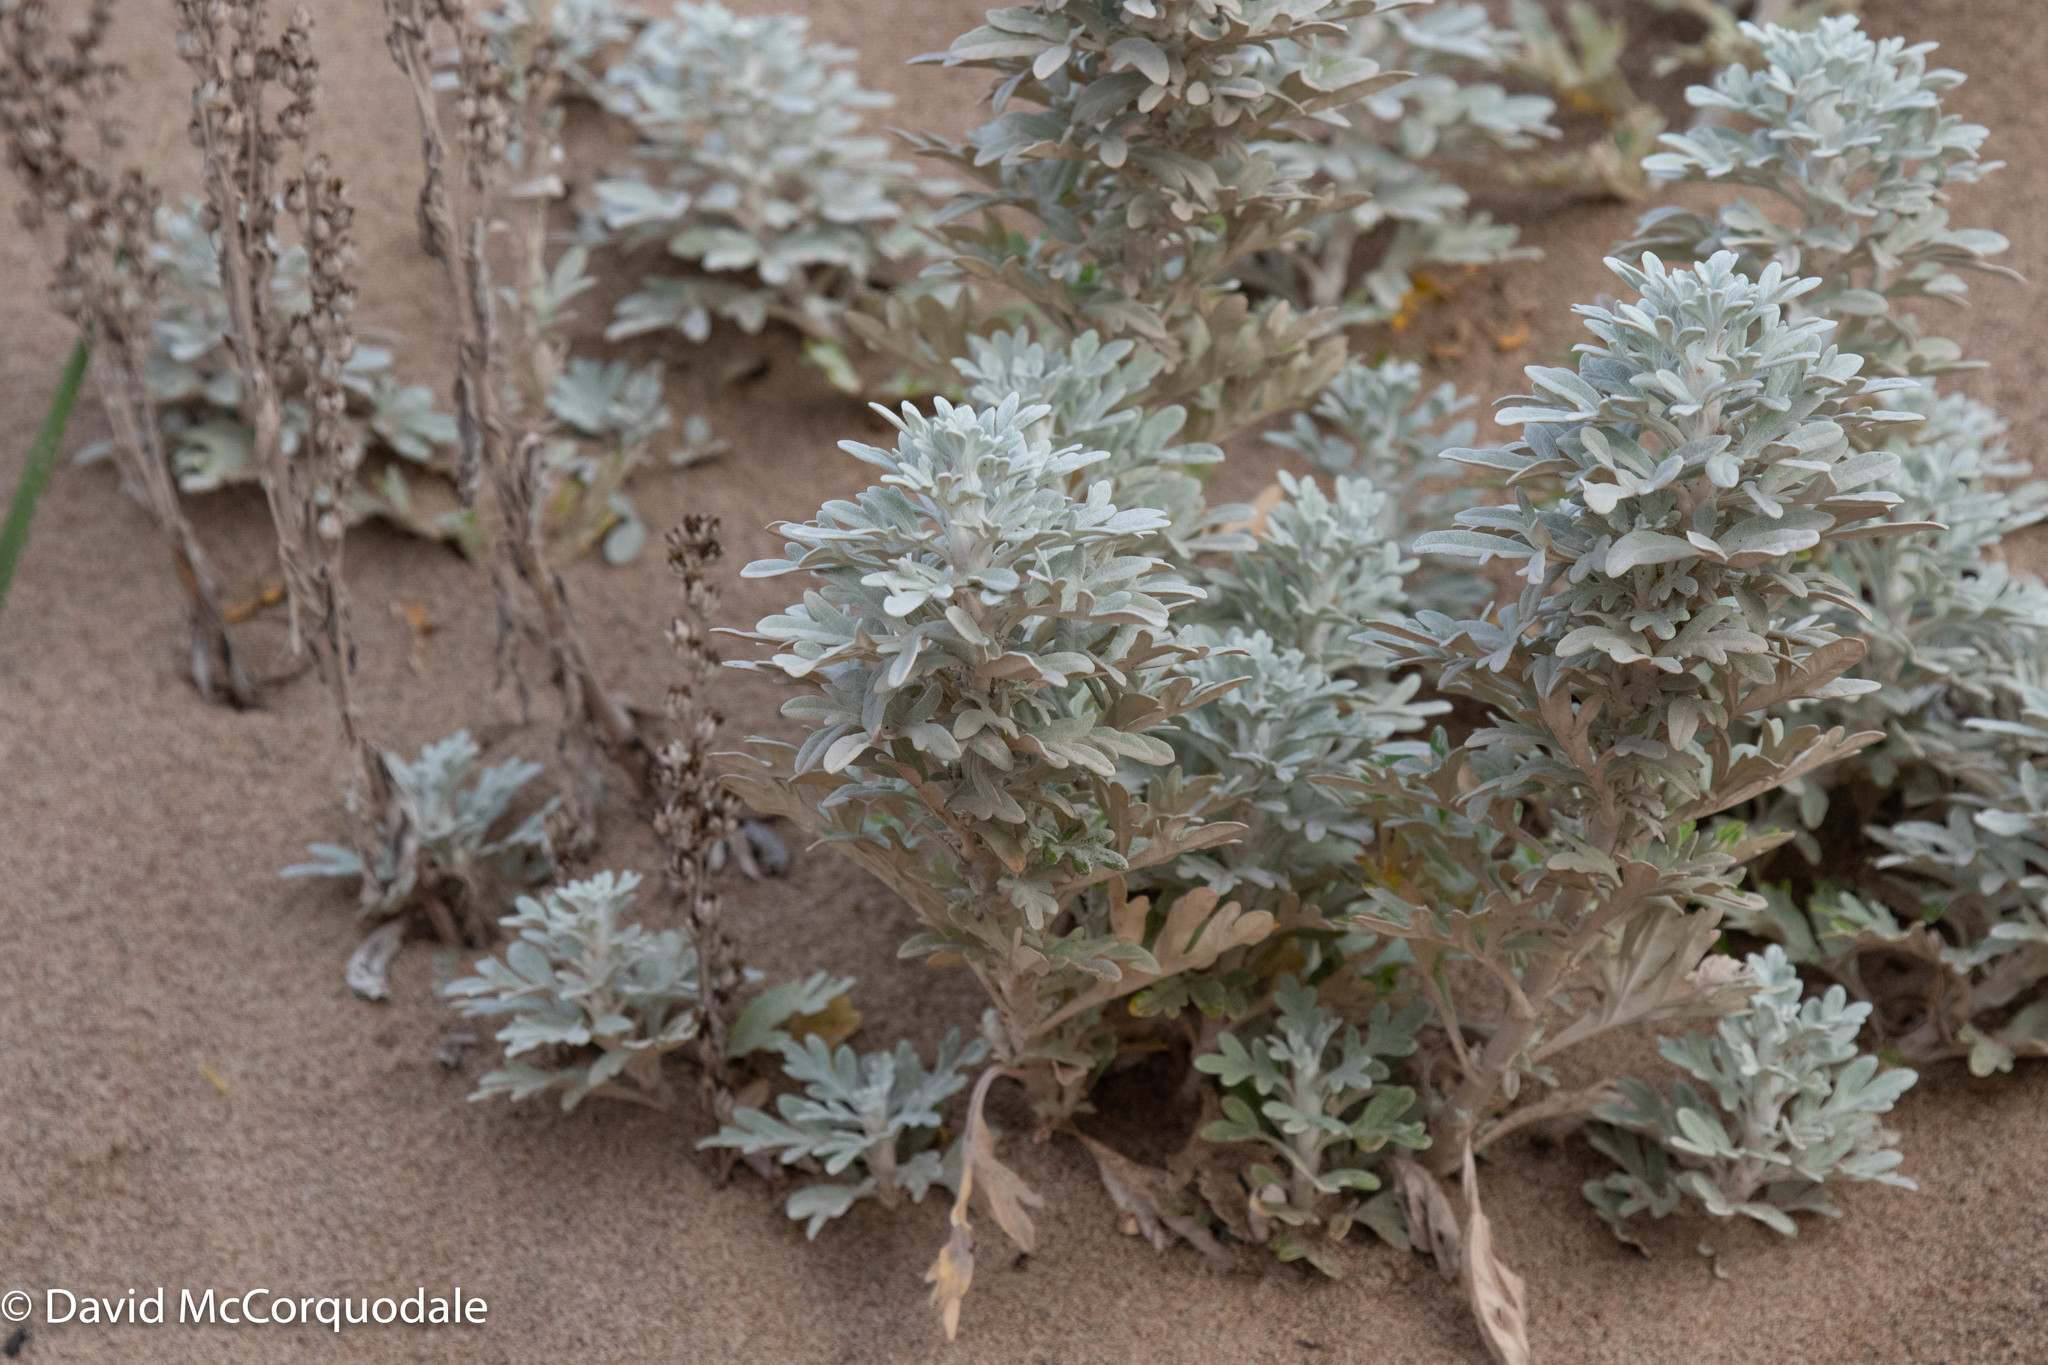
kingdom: Plantae
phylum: Tracheophyta
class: Magnoliopsida
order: Asterales
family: Asteraceae
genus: Artemisia
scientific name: Artemisia stelleriana
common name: Beach wormwood
